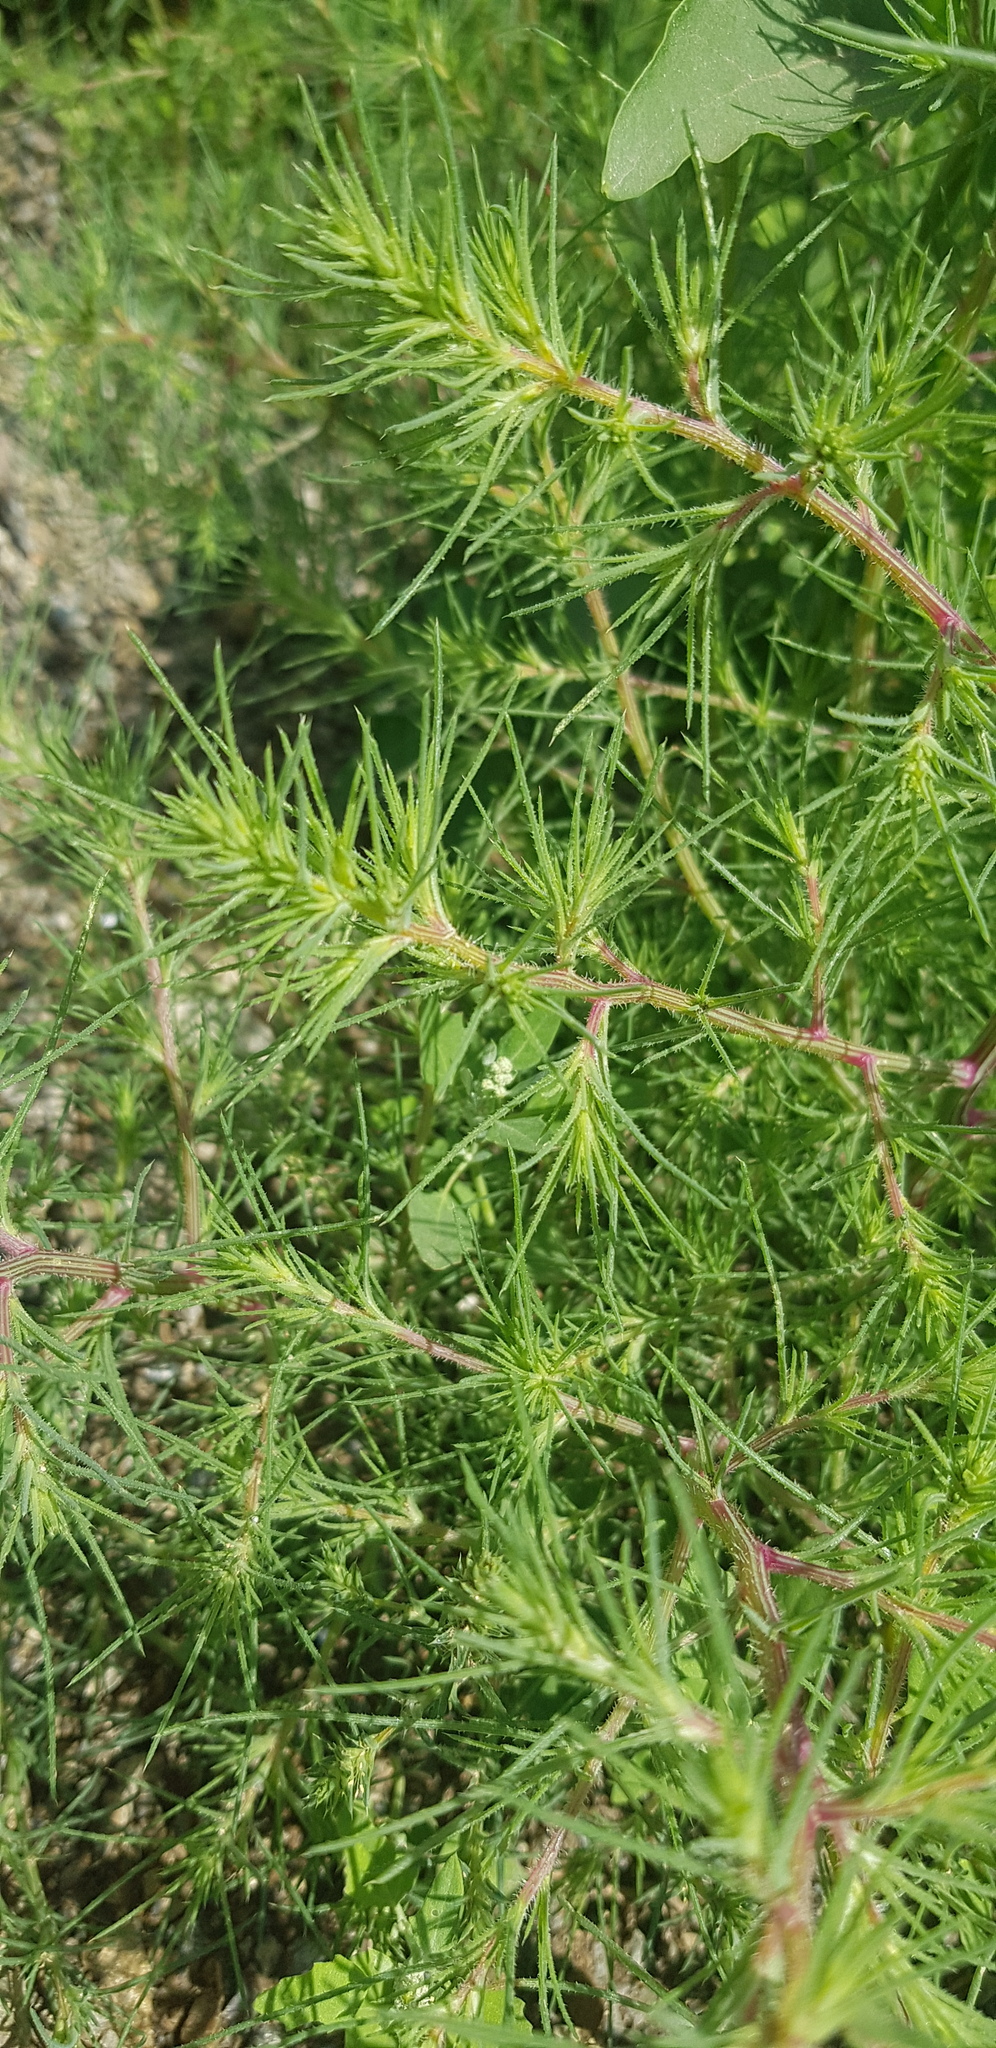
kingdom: Plantae
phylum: Tracheophyta
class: Magnoliopsida
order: Caryophyllales
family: Amaranthaceae
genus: Salsola
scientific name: Salsola collina
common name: Tumbleweed
